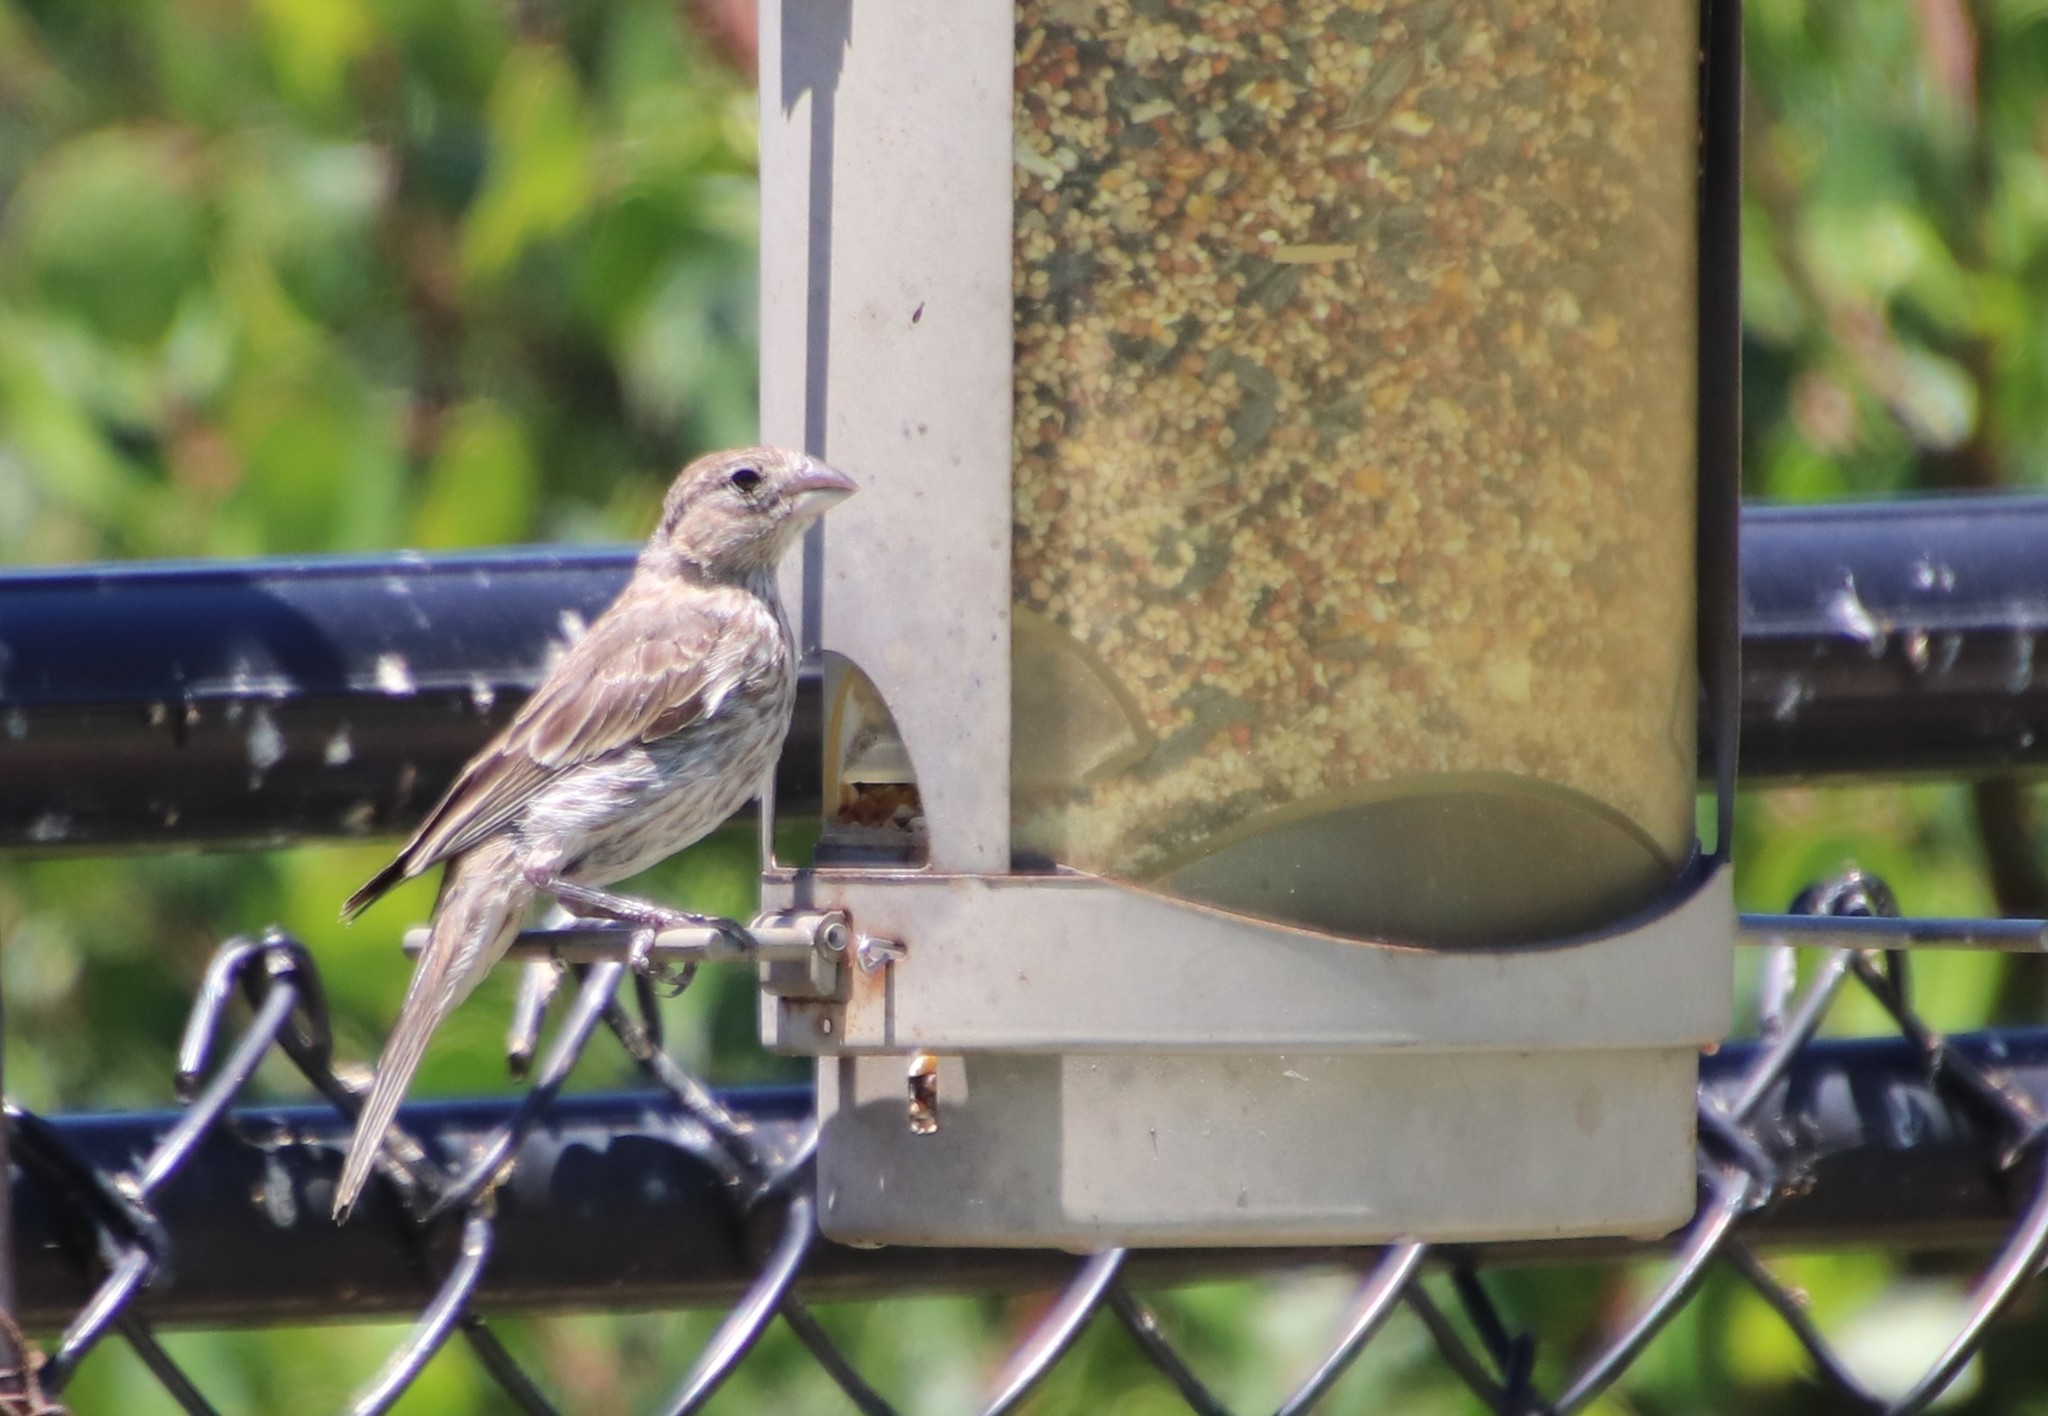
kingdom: Animalia
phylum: Chordata
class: Aves
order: Passeriformes
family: Fringillidae
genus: Haemorhous
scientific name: Haemorhous mexicanus
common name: House finch
